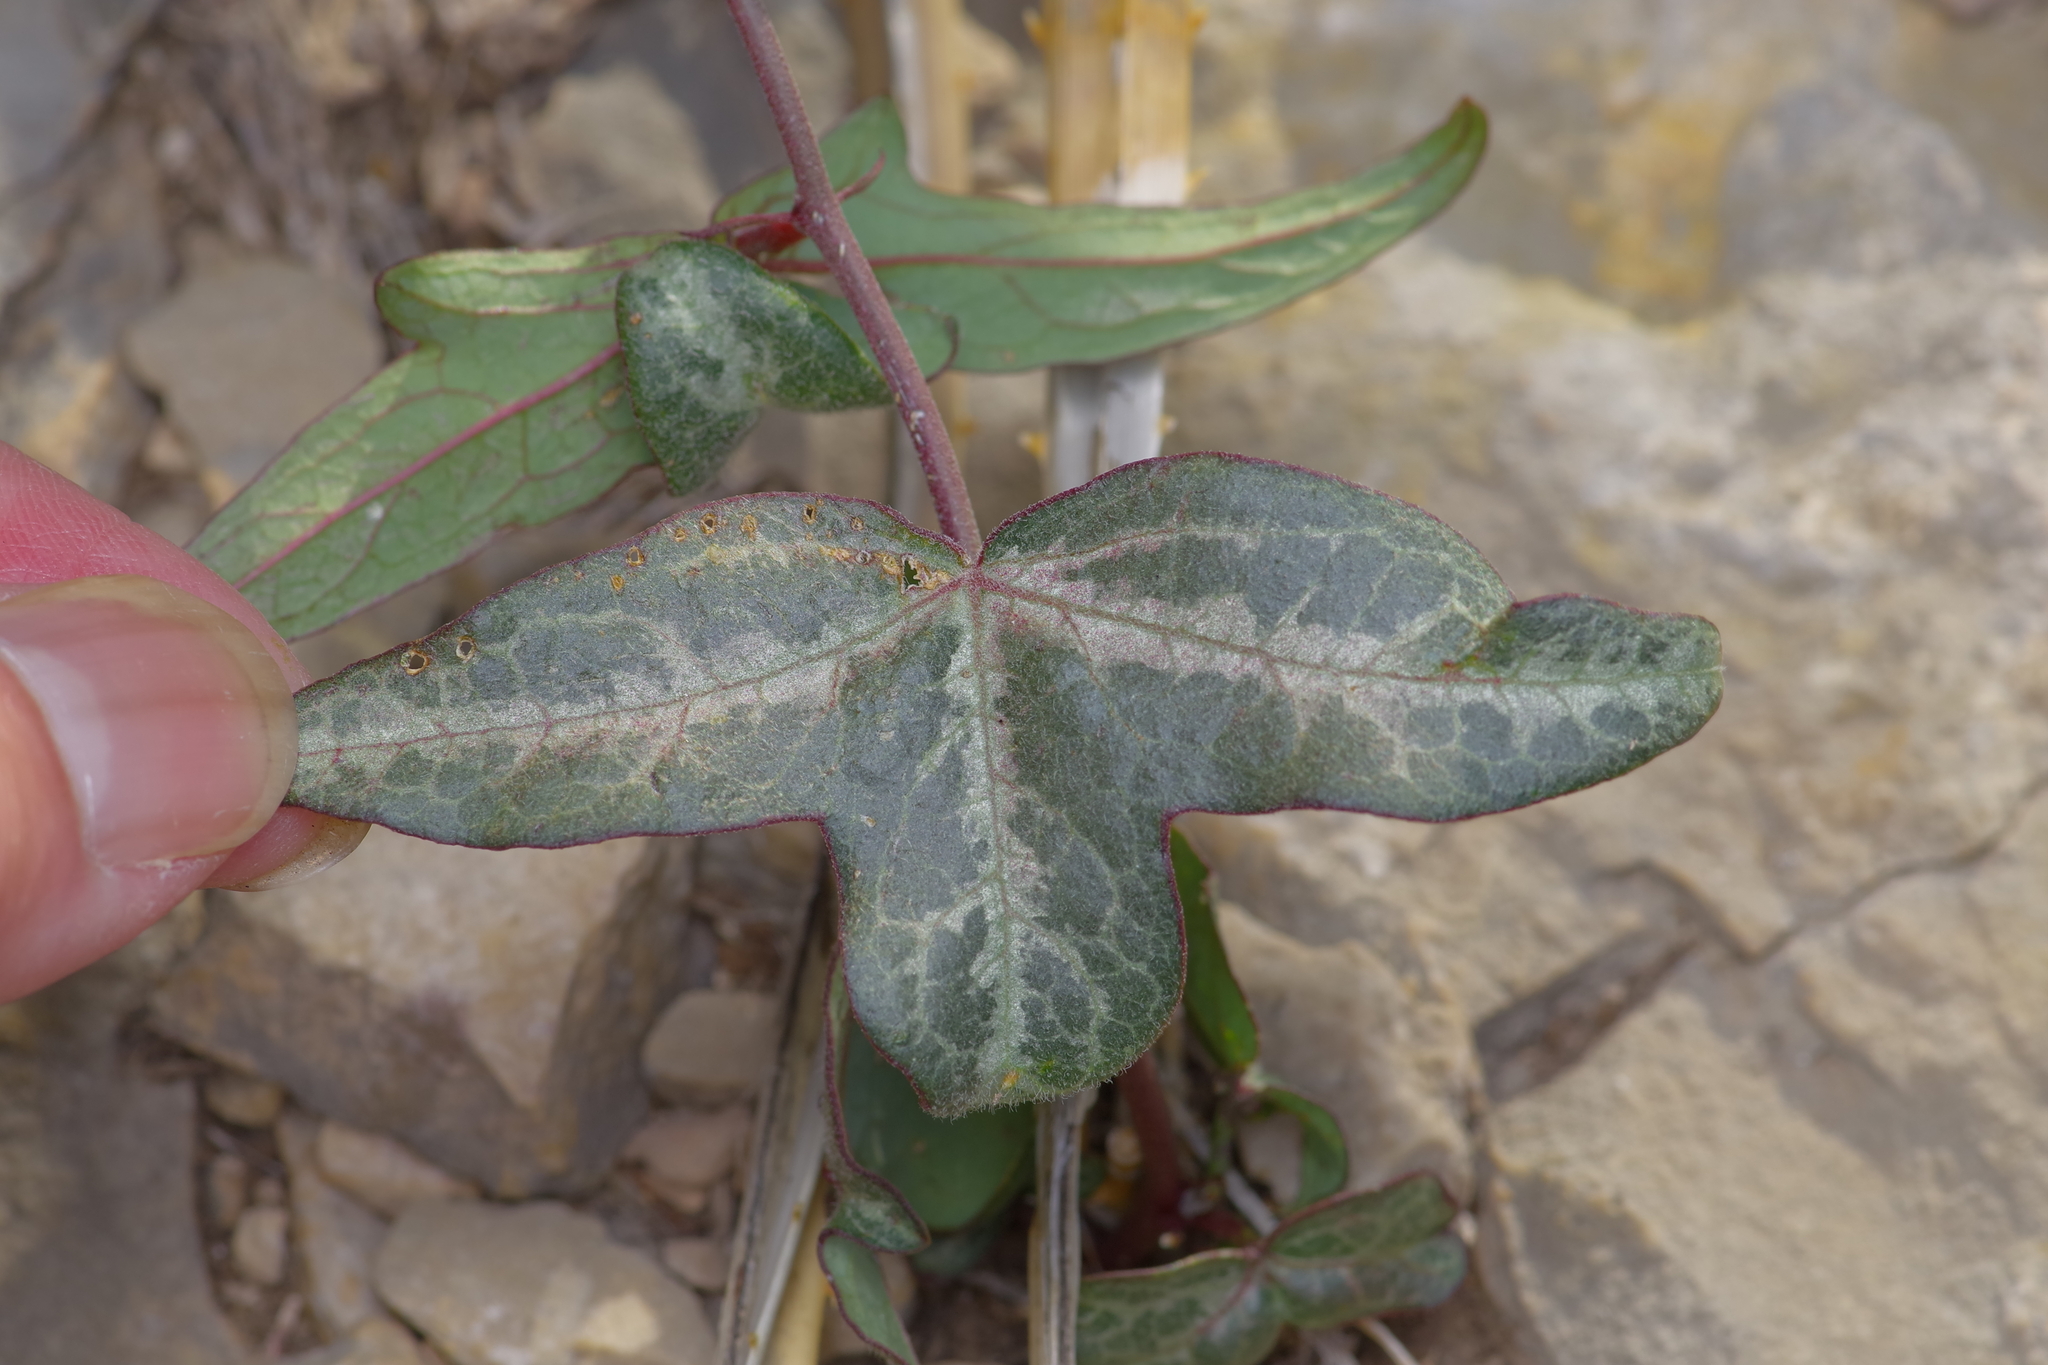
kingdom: Plantae
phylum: Tracheophyta
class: Magnoliopsida
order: Malpighiales
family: Passifloraceae
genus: Passiflora
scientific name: Passiflora tenuiloba
